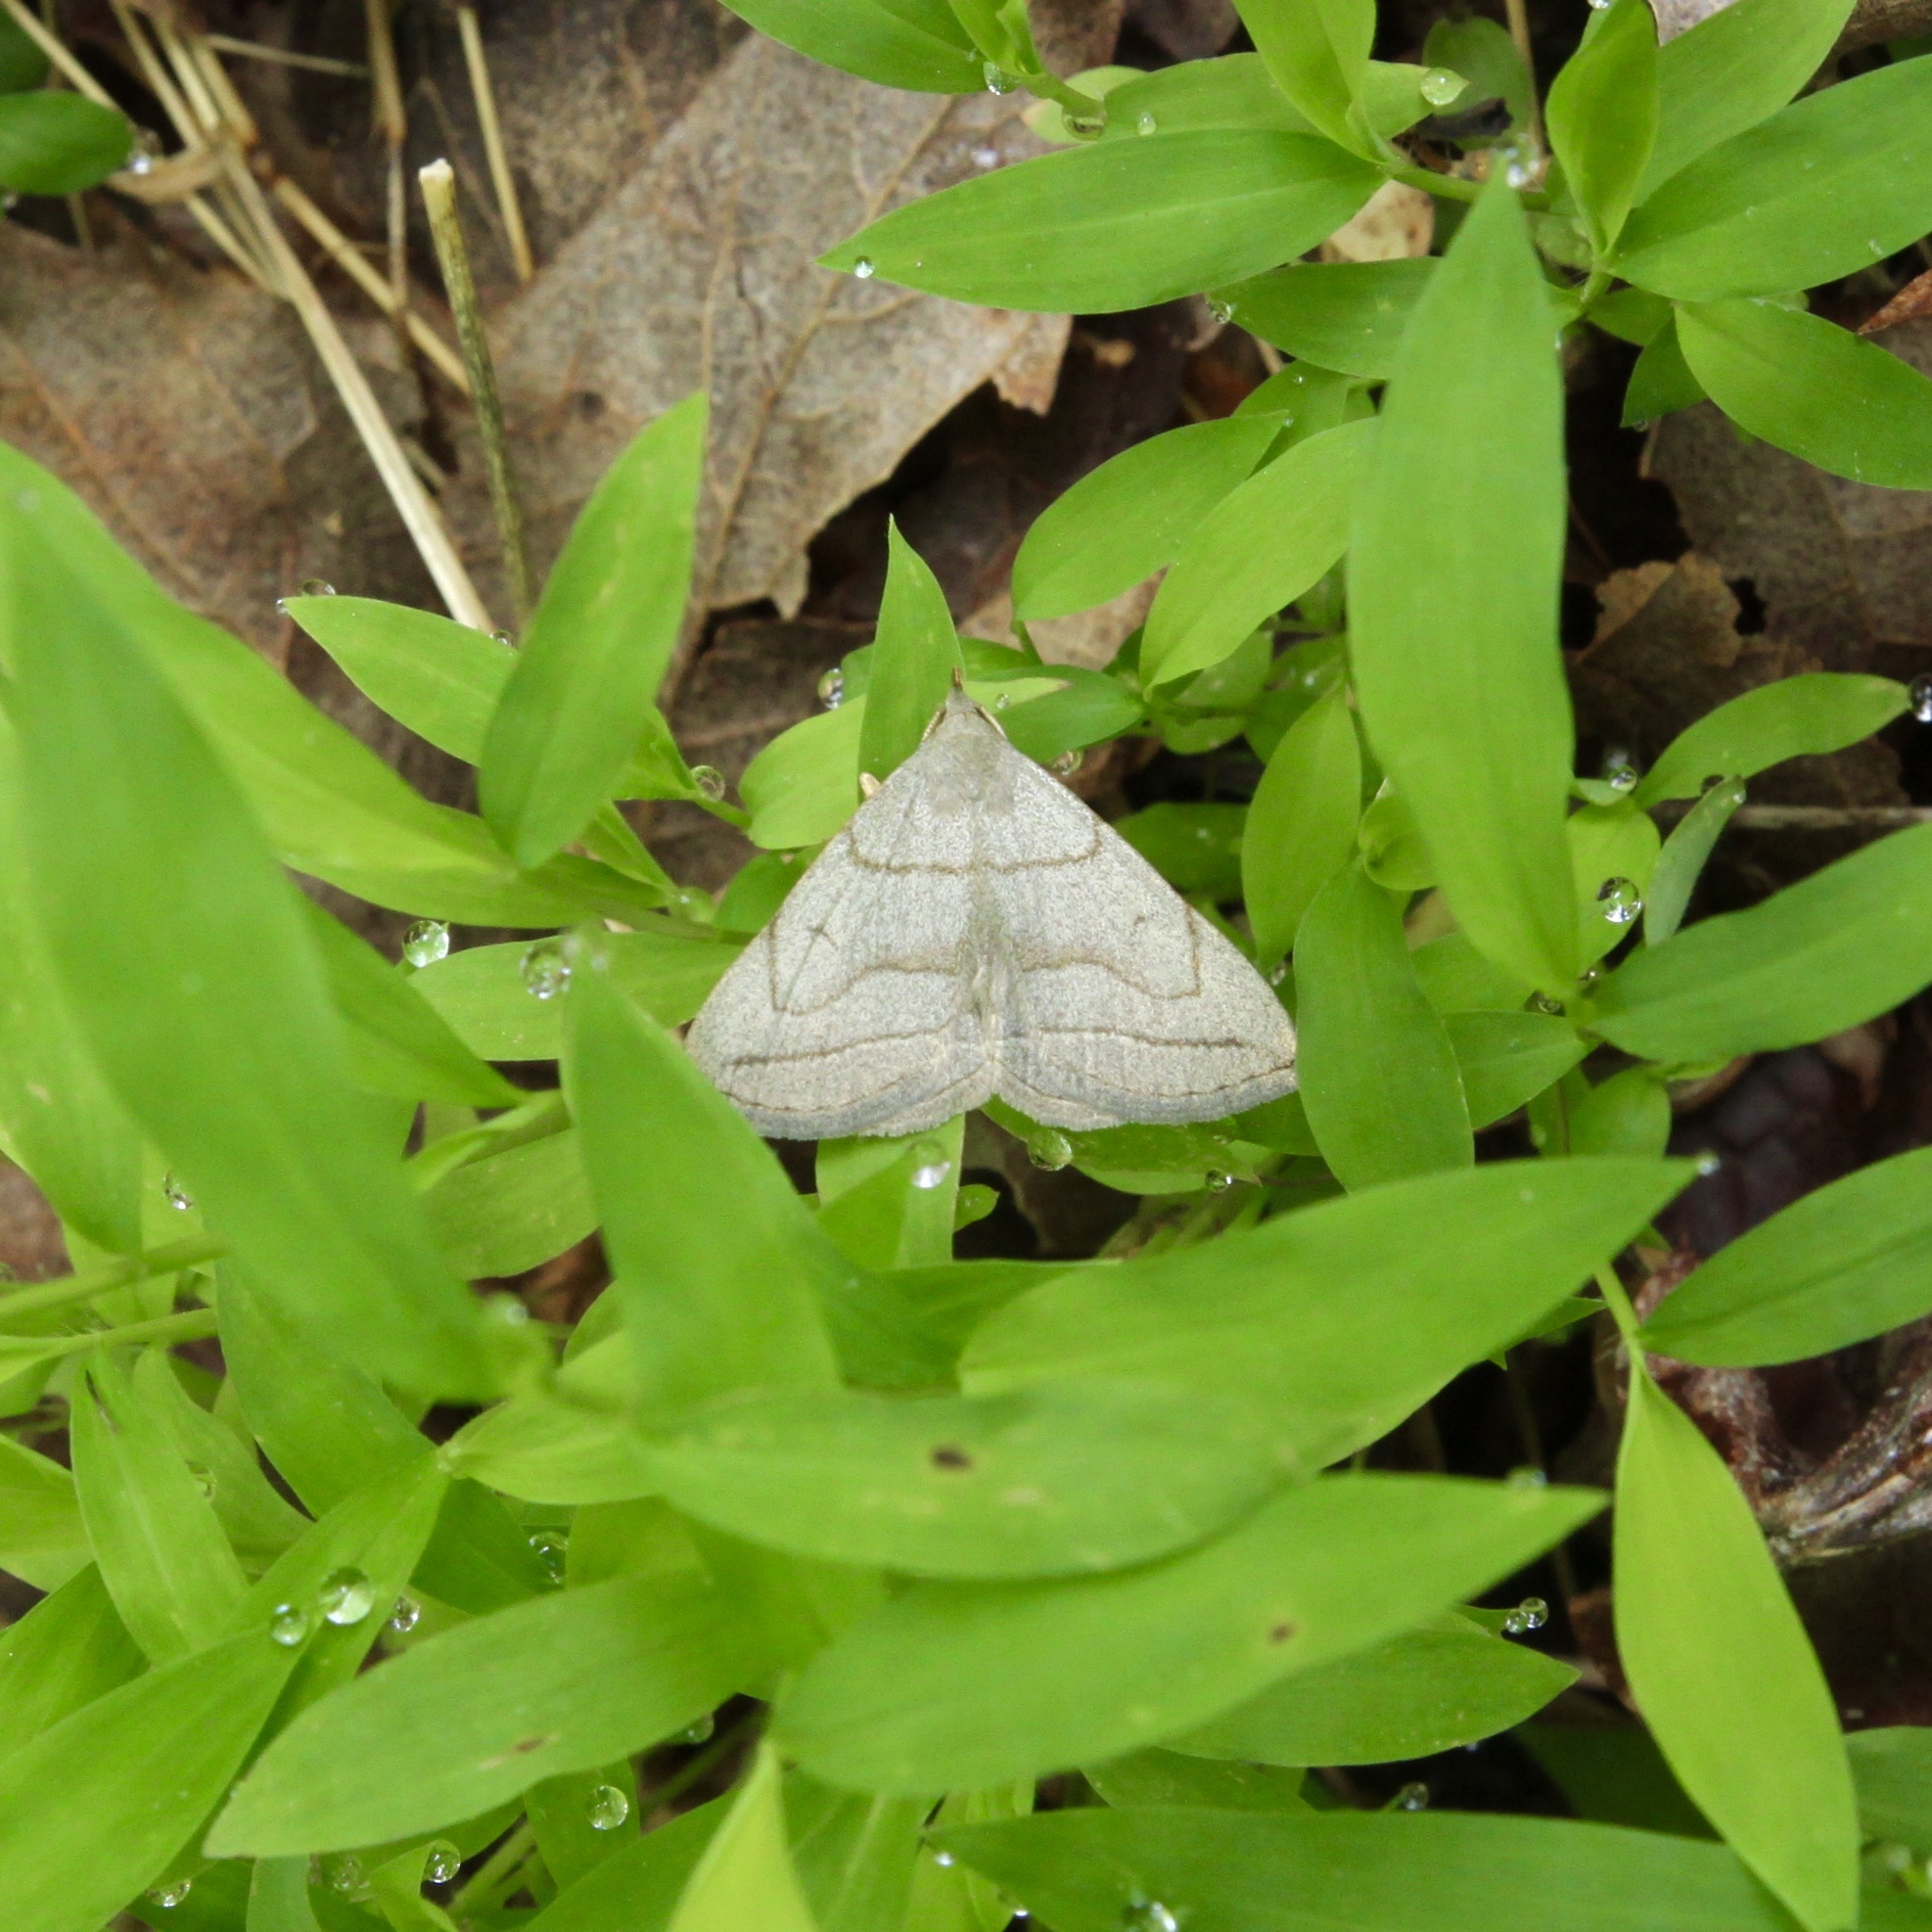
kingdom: Animalia
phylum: Arthropoda
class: Insecta
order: Lepidoptera
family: Erebidae
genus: Zanclognatha
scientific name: Zanclognatha pedipilalis
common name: Grayish fan-foot
